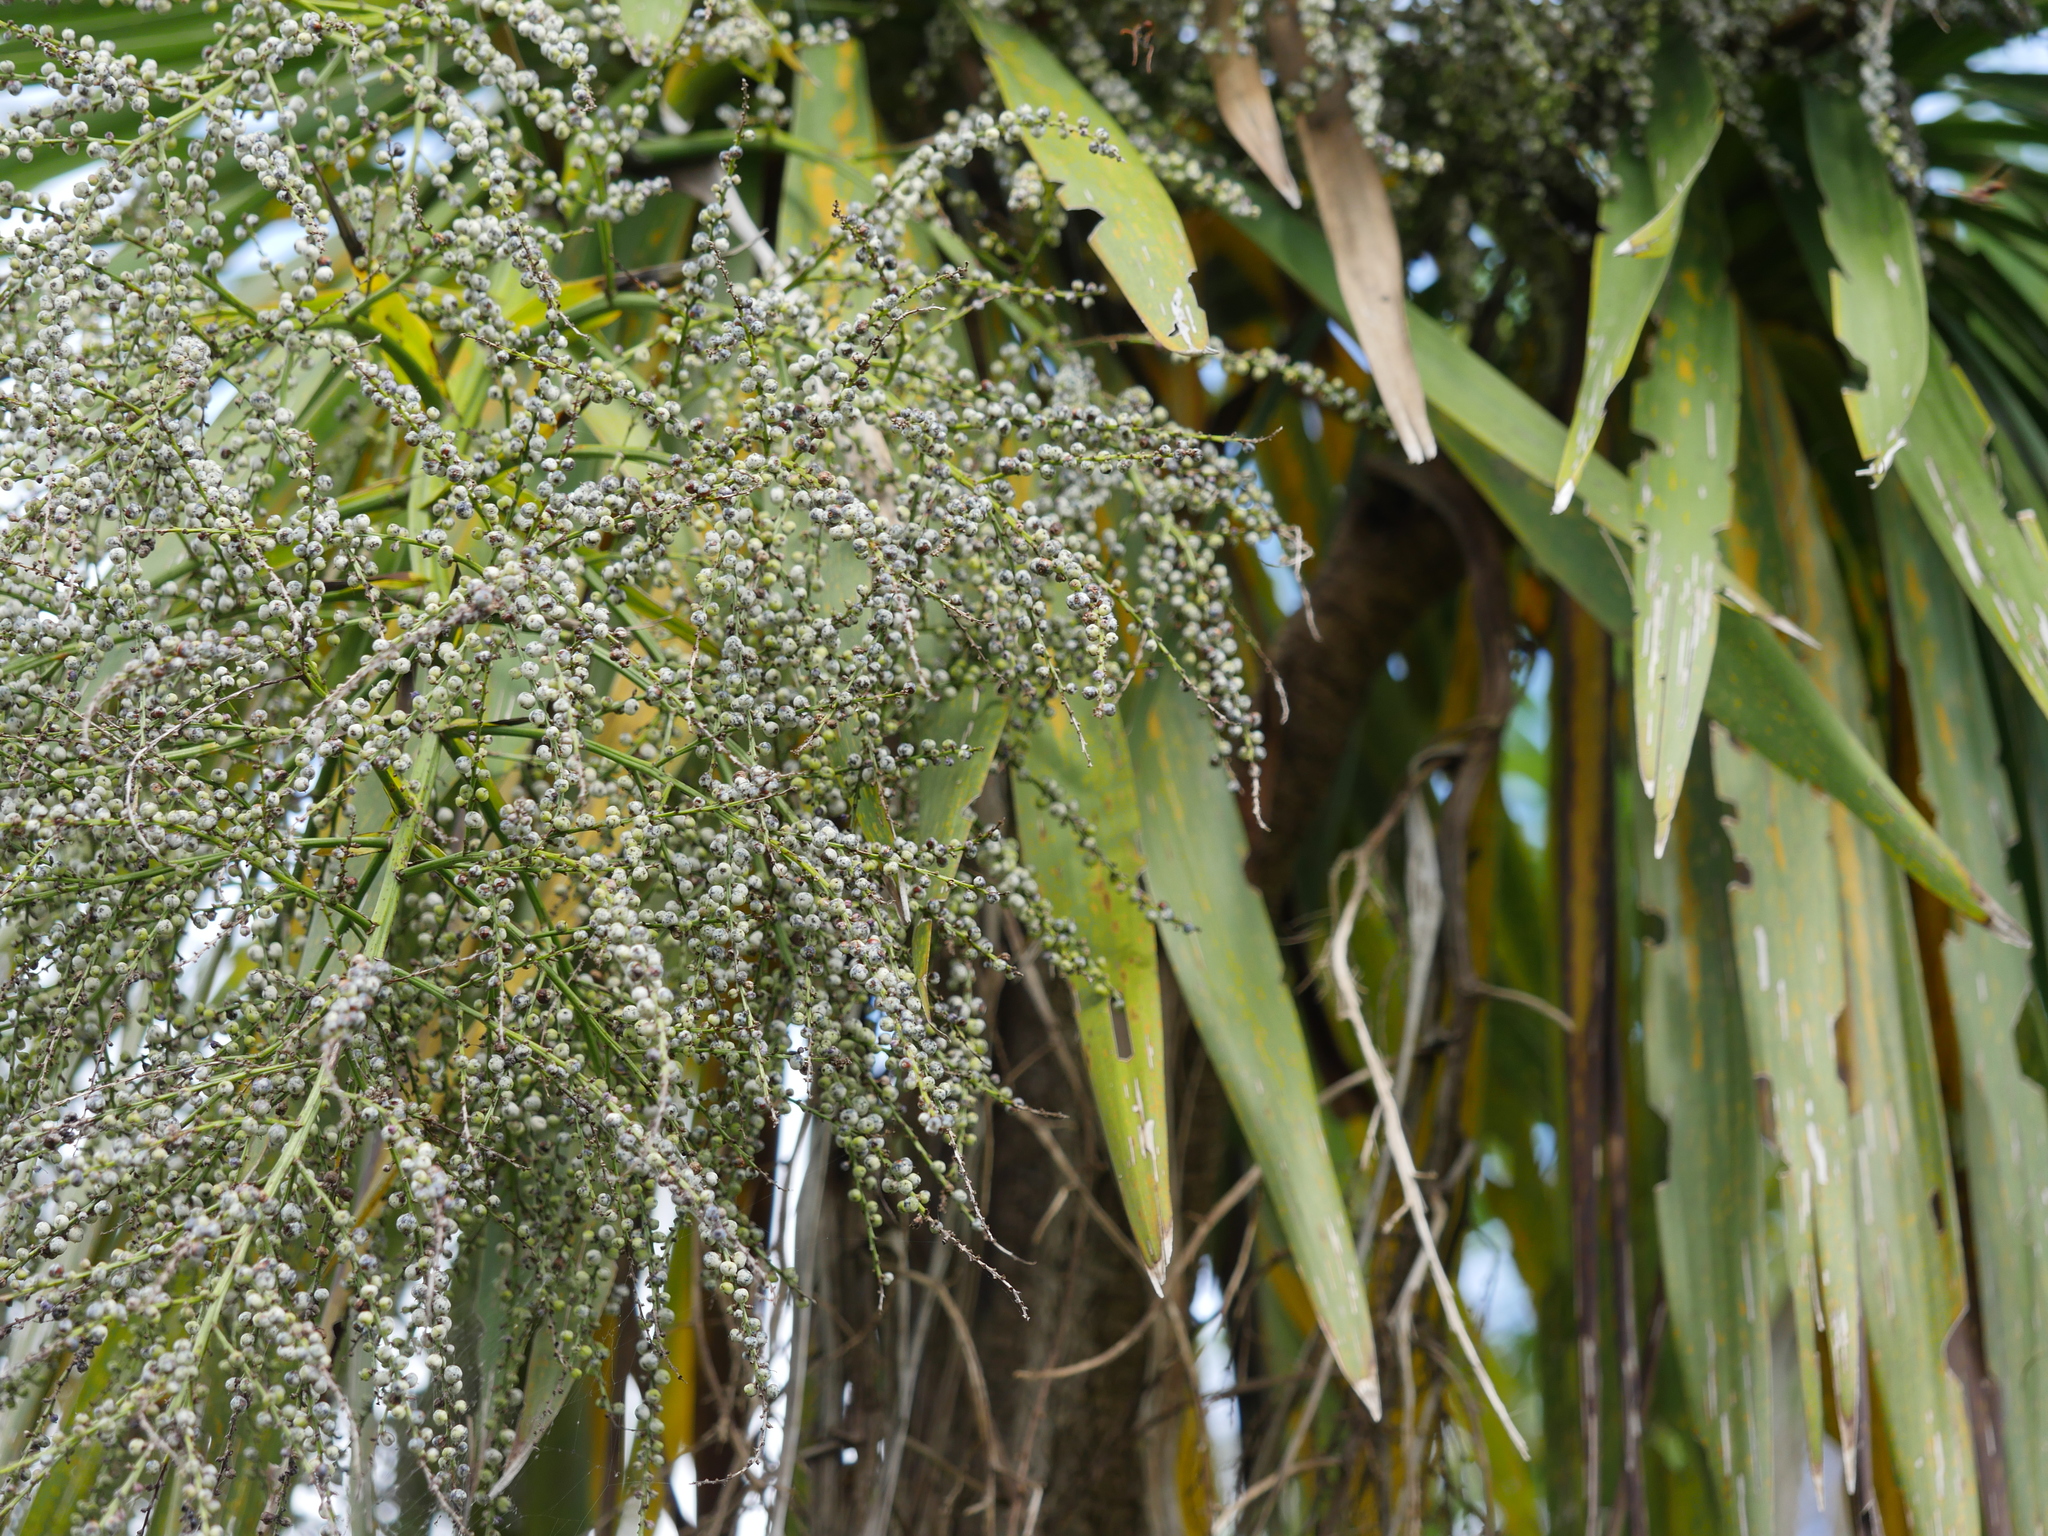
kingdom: Plantae
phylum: Tracheophyta
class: Liliopsida
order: Asparagales
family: Asparagaceae
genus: Cordyline
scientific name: Cordyline australis
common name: Cabbage-palm
